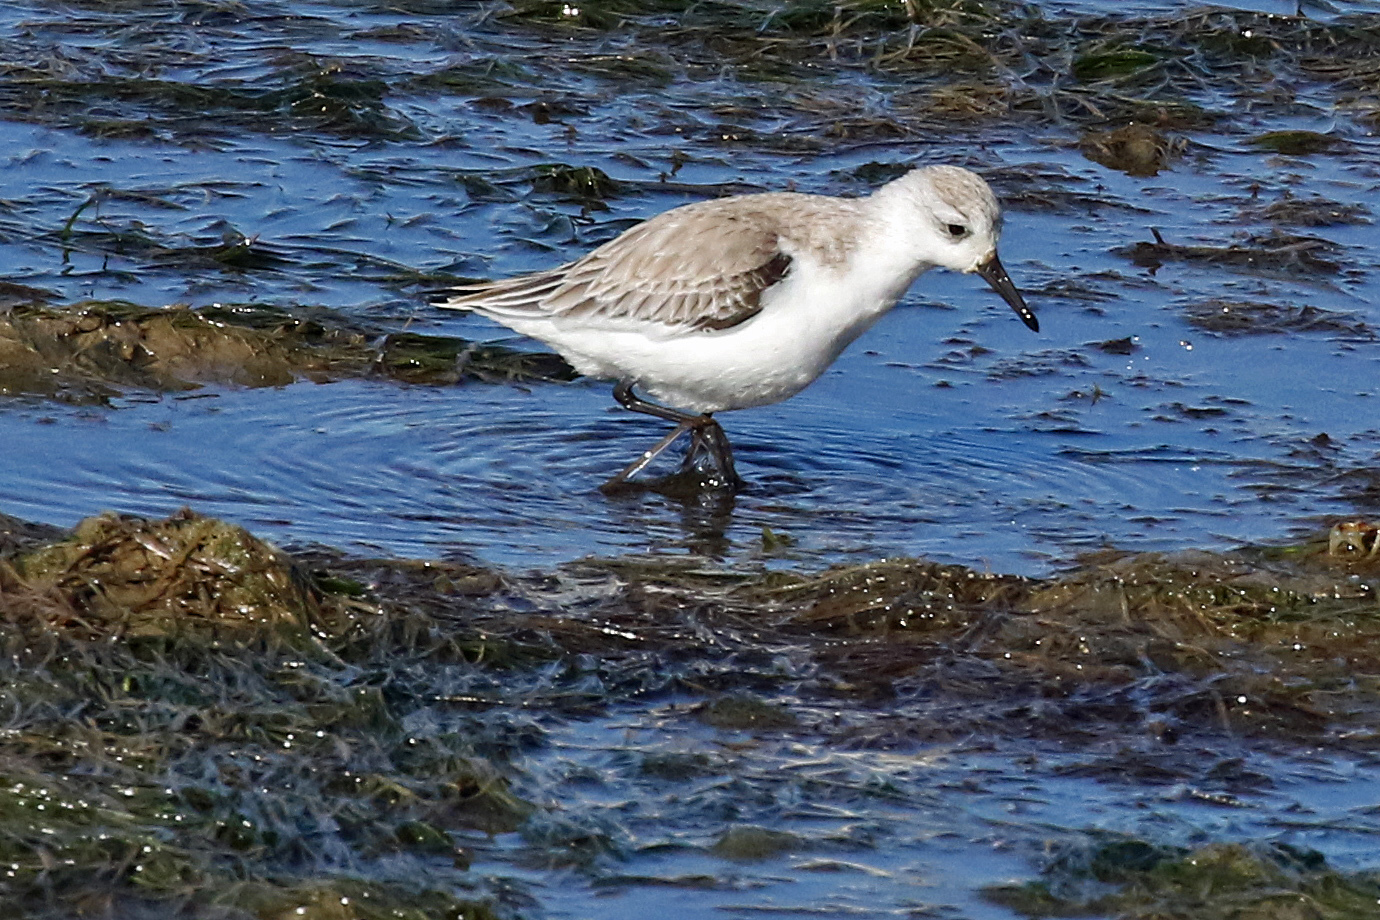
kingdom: Animalia
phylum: Chordata
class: Aves
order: Charadriiformes
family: Scolopacidae
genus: Calidris
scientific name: Calidris alba
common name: Sanderling
